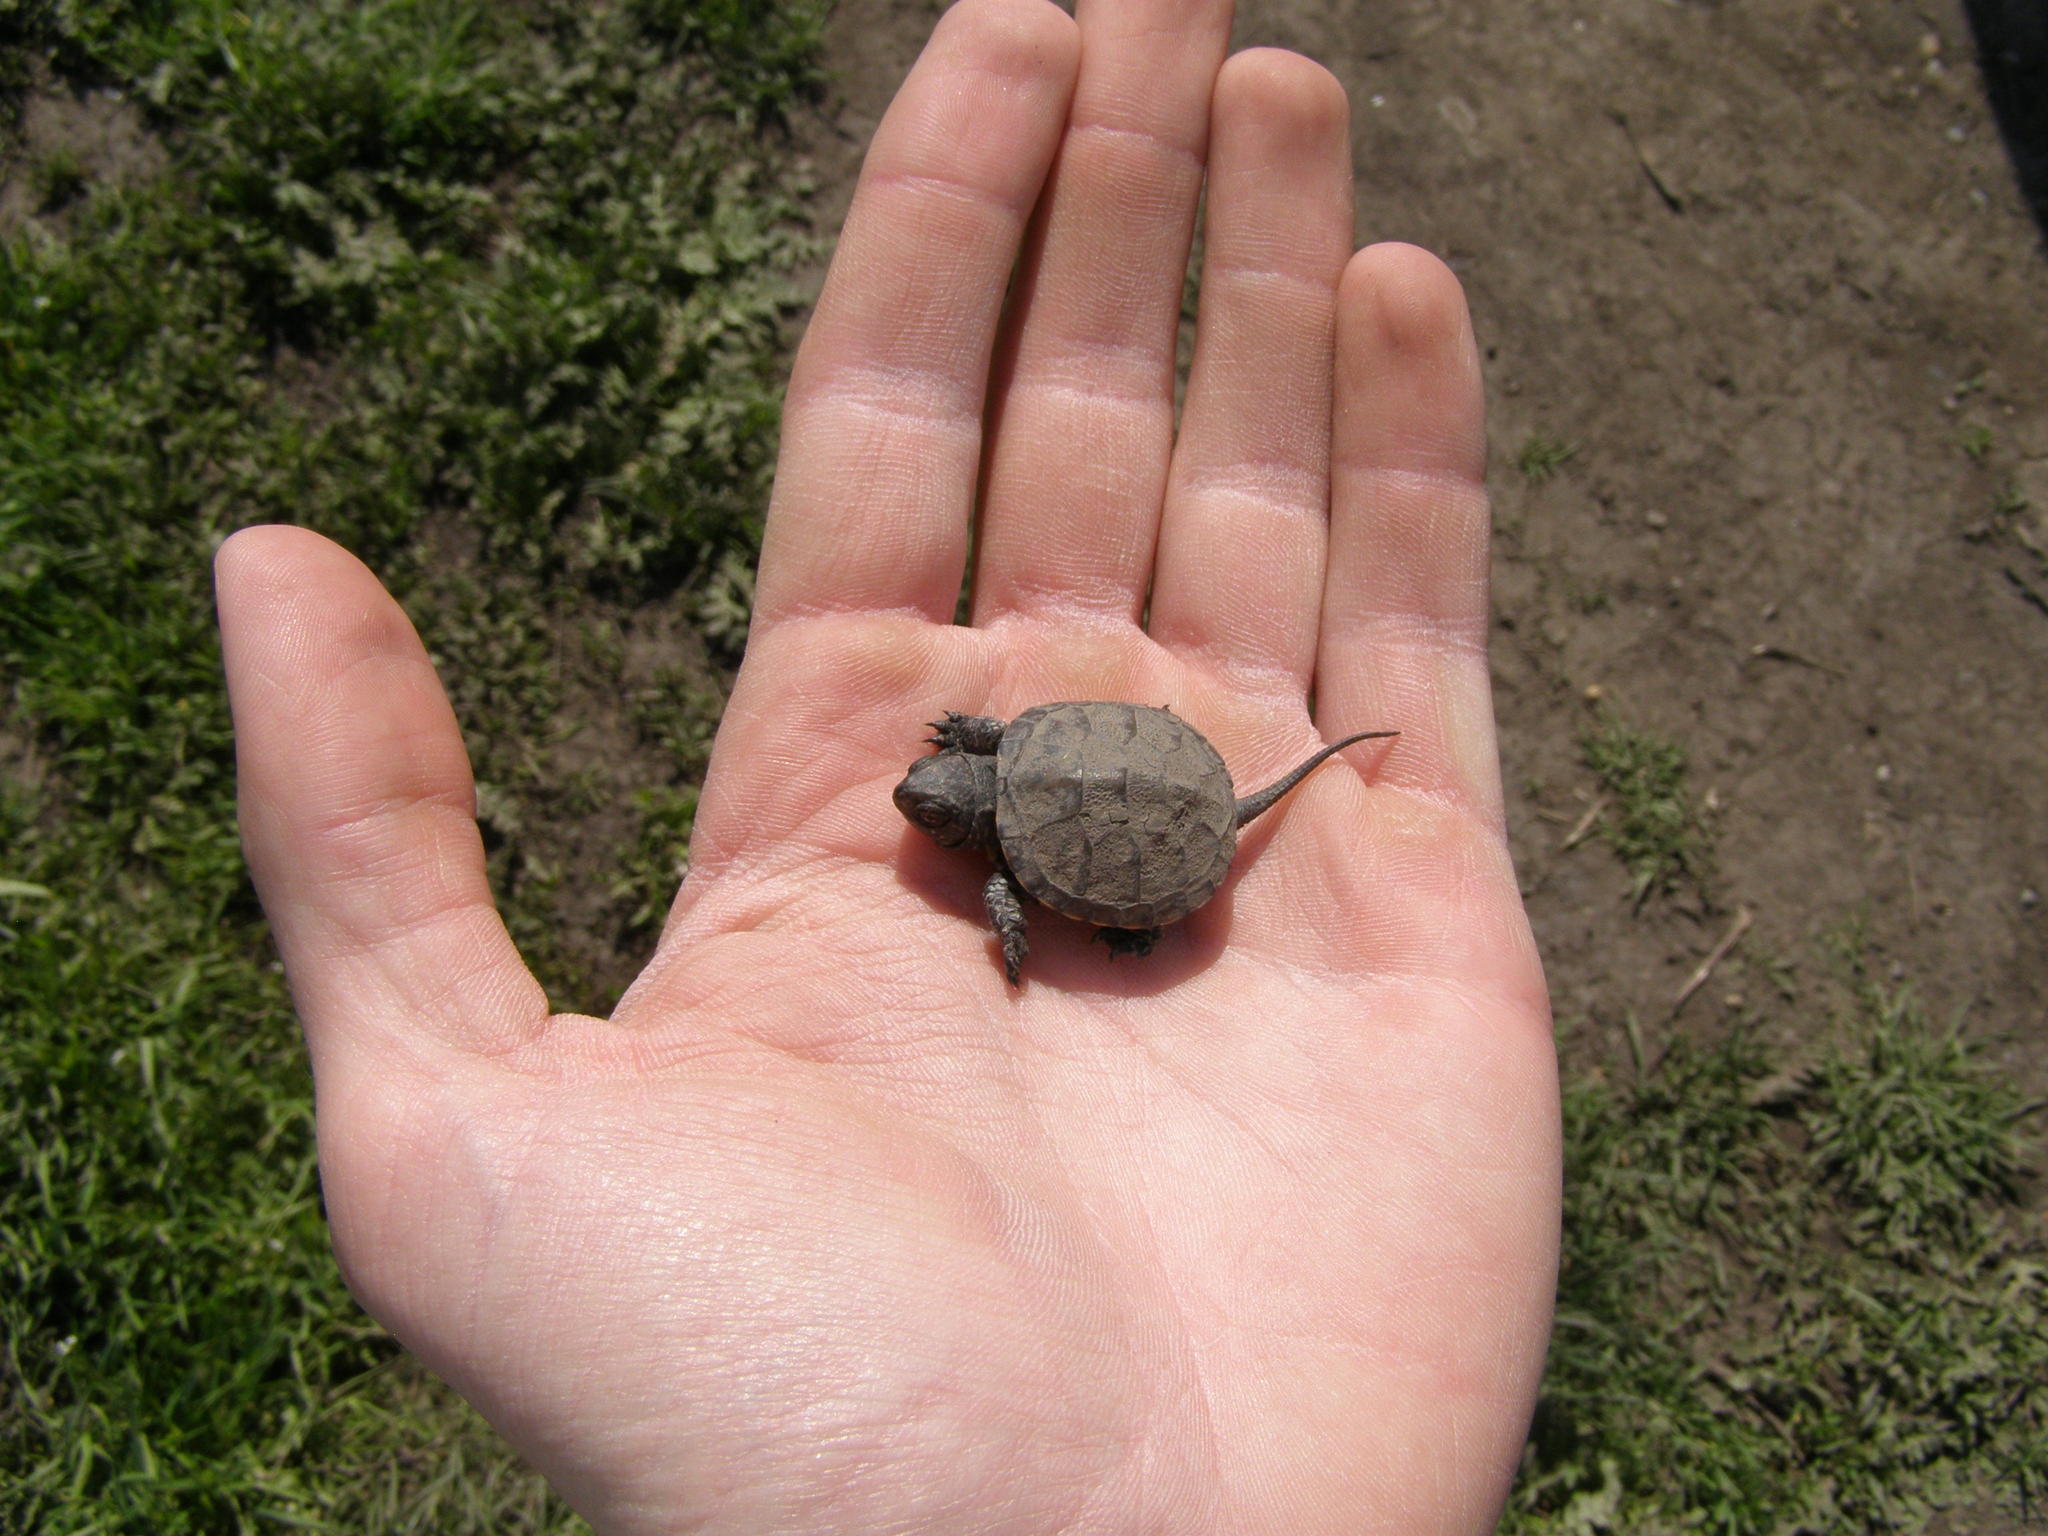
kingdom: Animalia
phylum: Chordata
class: Testudines
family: Emydidae
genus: Emys
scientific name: Emys orbicularis
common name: European pond turtle
